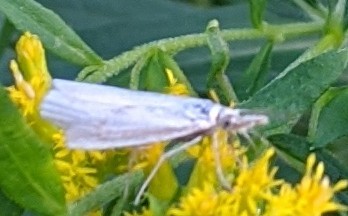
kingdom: Animalia
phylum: Arthropoda
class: Insecta
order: Lepidoptera
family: Crambidae
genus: Crambus
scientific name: Crambus perlellus
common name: Yellow satin veneer
